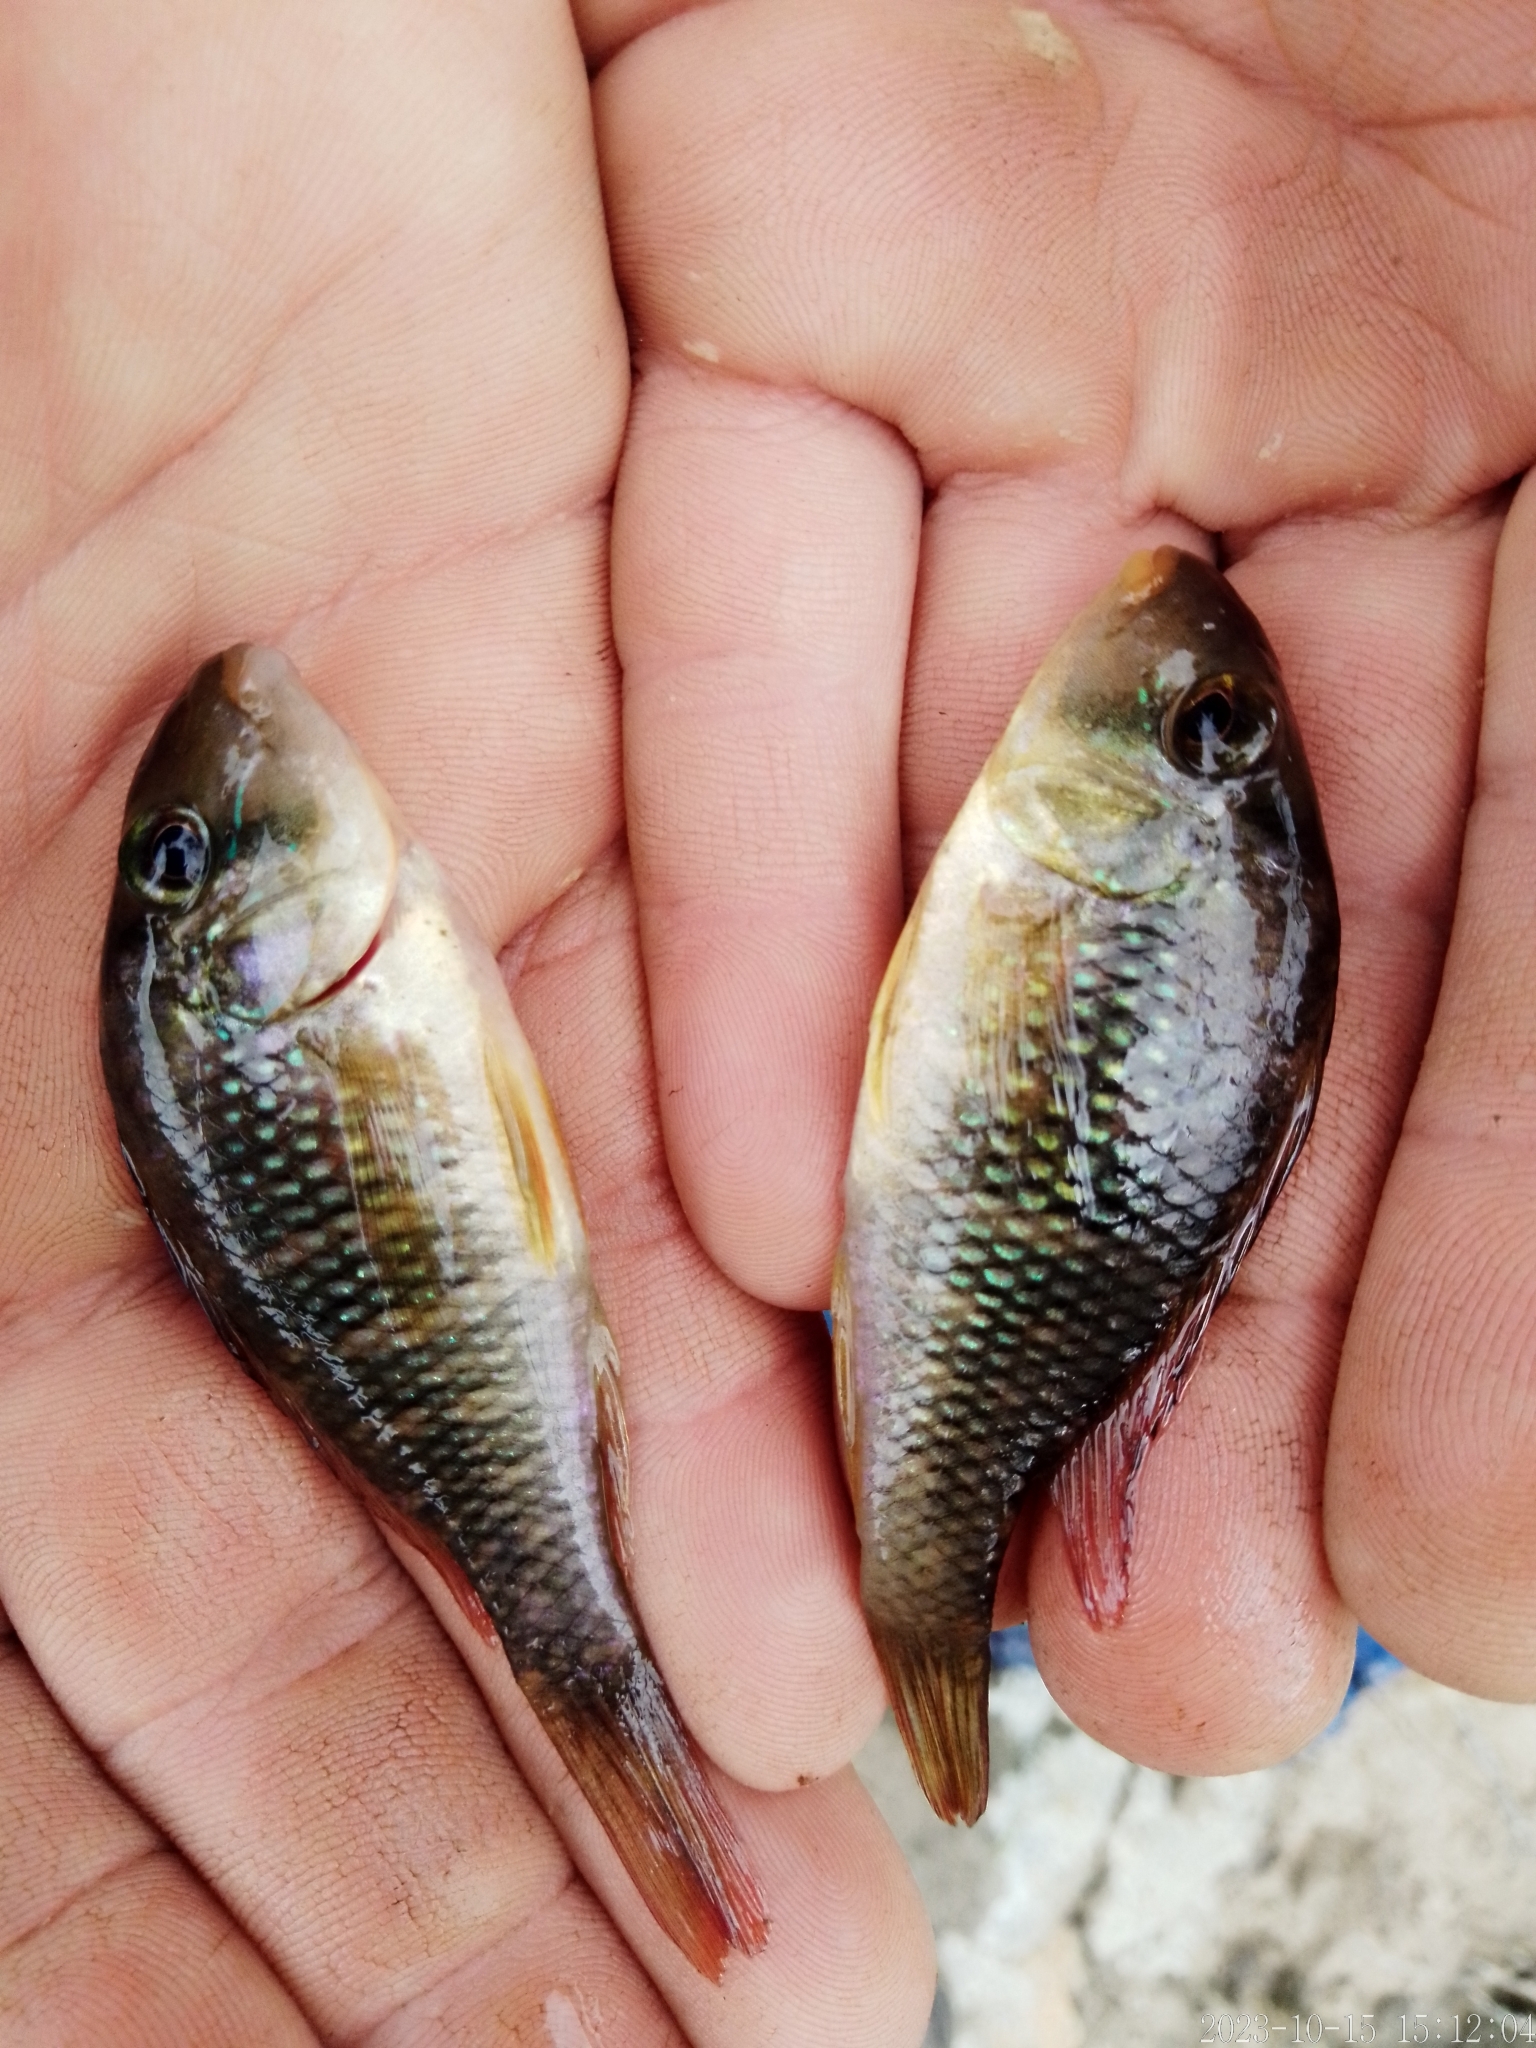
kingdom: Animalia
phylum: Chordata
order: Perciformes
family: Cichlidae
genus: Gymnogeophagus
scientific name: Gymnogeophagus labiatus
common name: Earth eater
